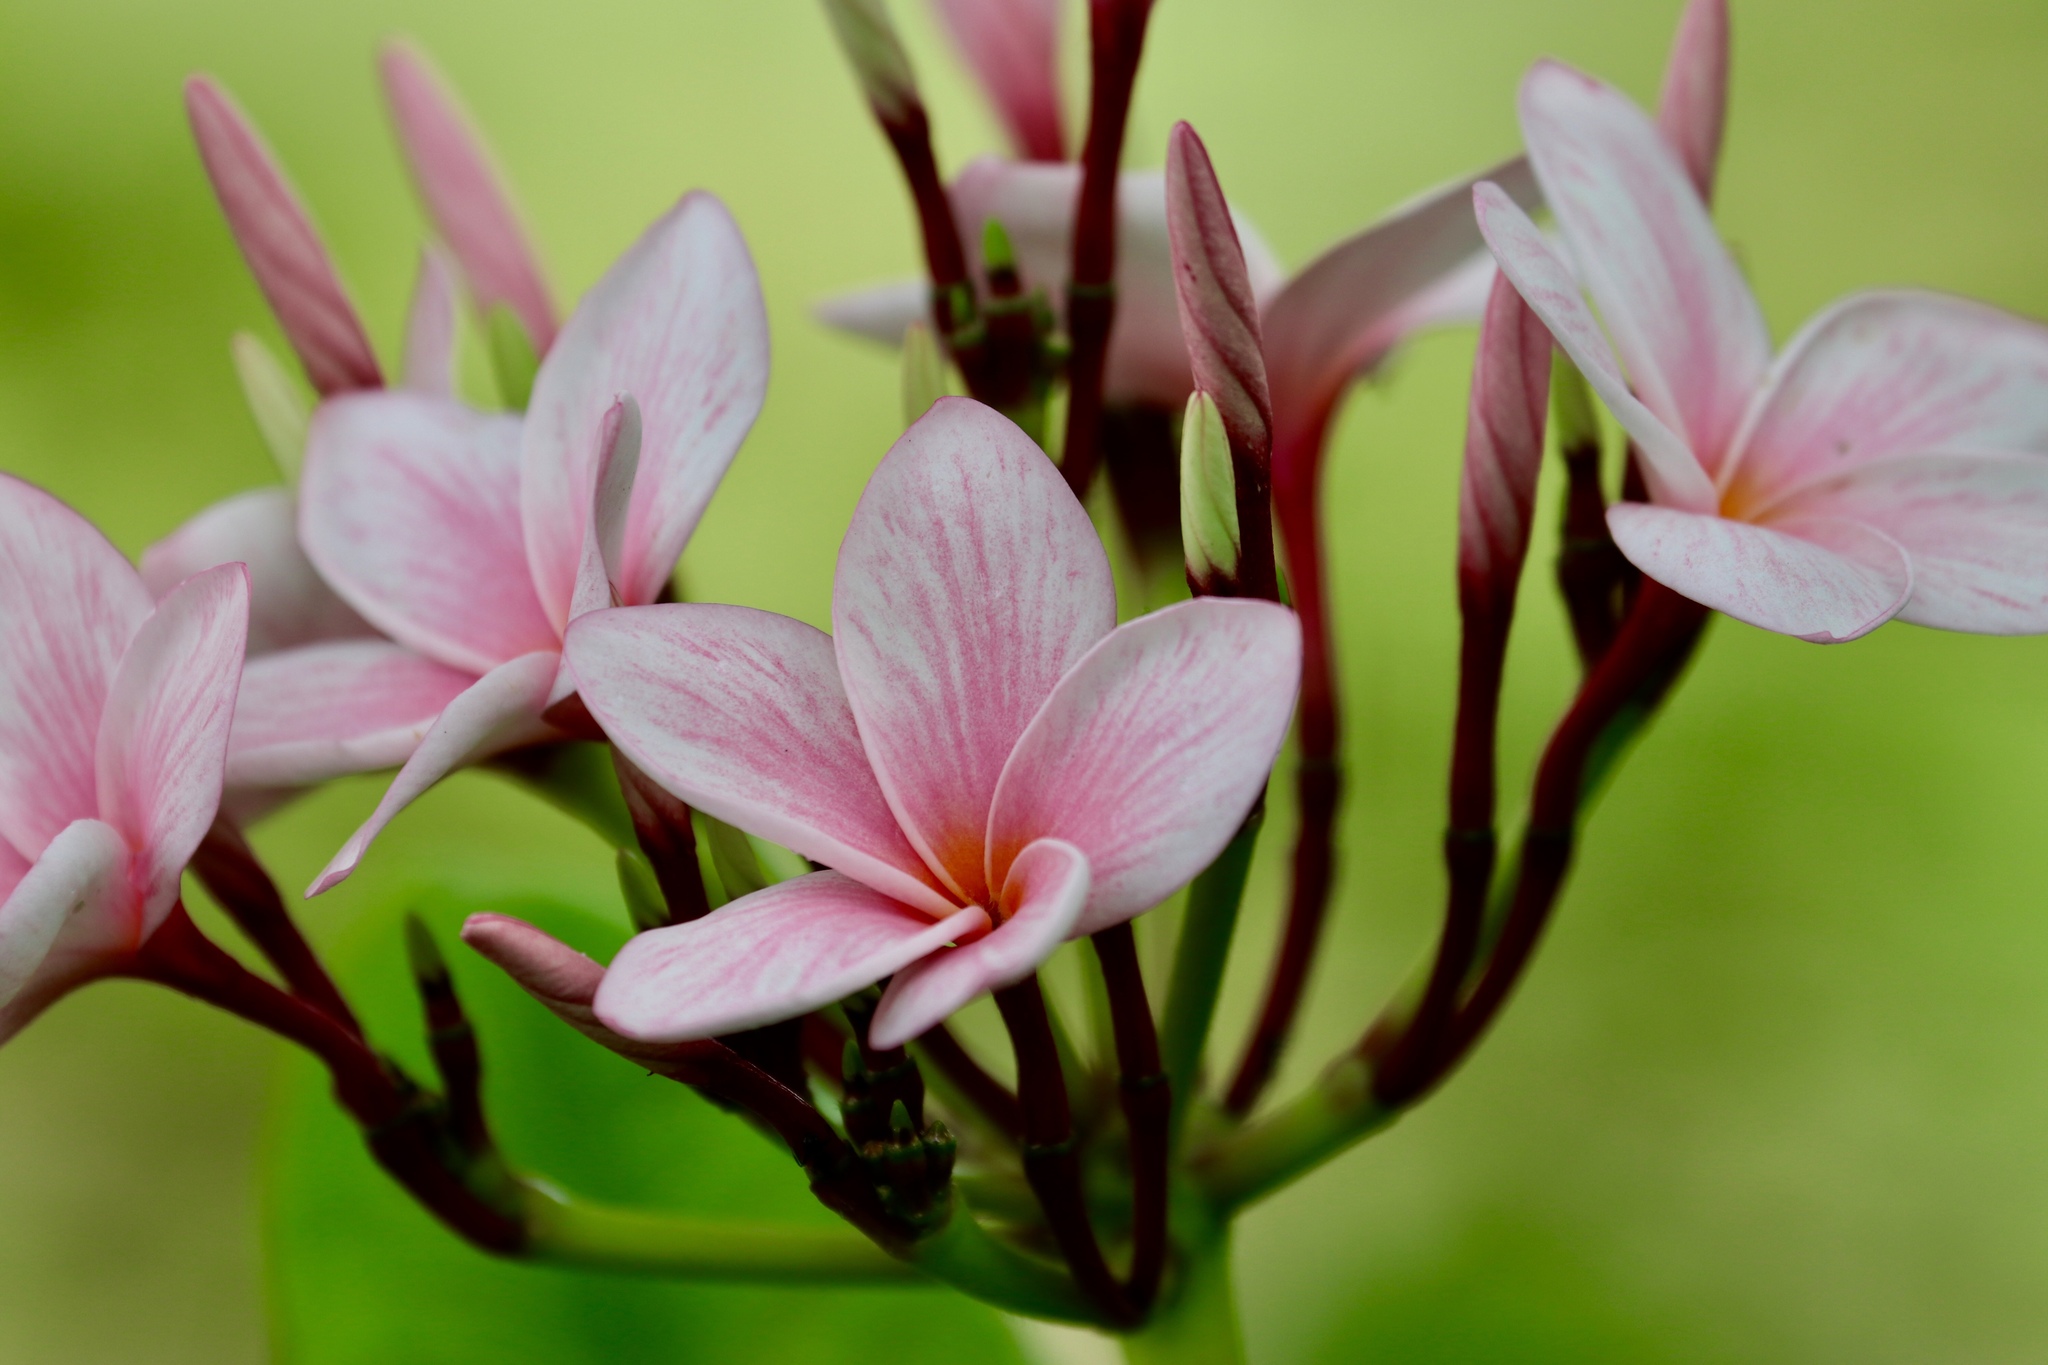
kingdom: Plantae
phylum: Tracheophyta
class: Magnoliopsida
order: Gentianales
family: Apocynaceae
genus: Plumeria
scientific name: Plumeria rubra
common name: Pagoda-tree
